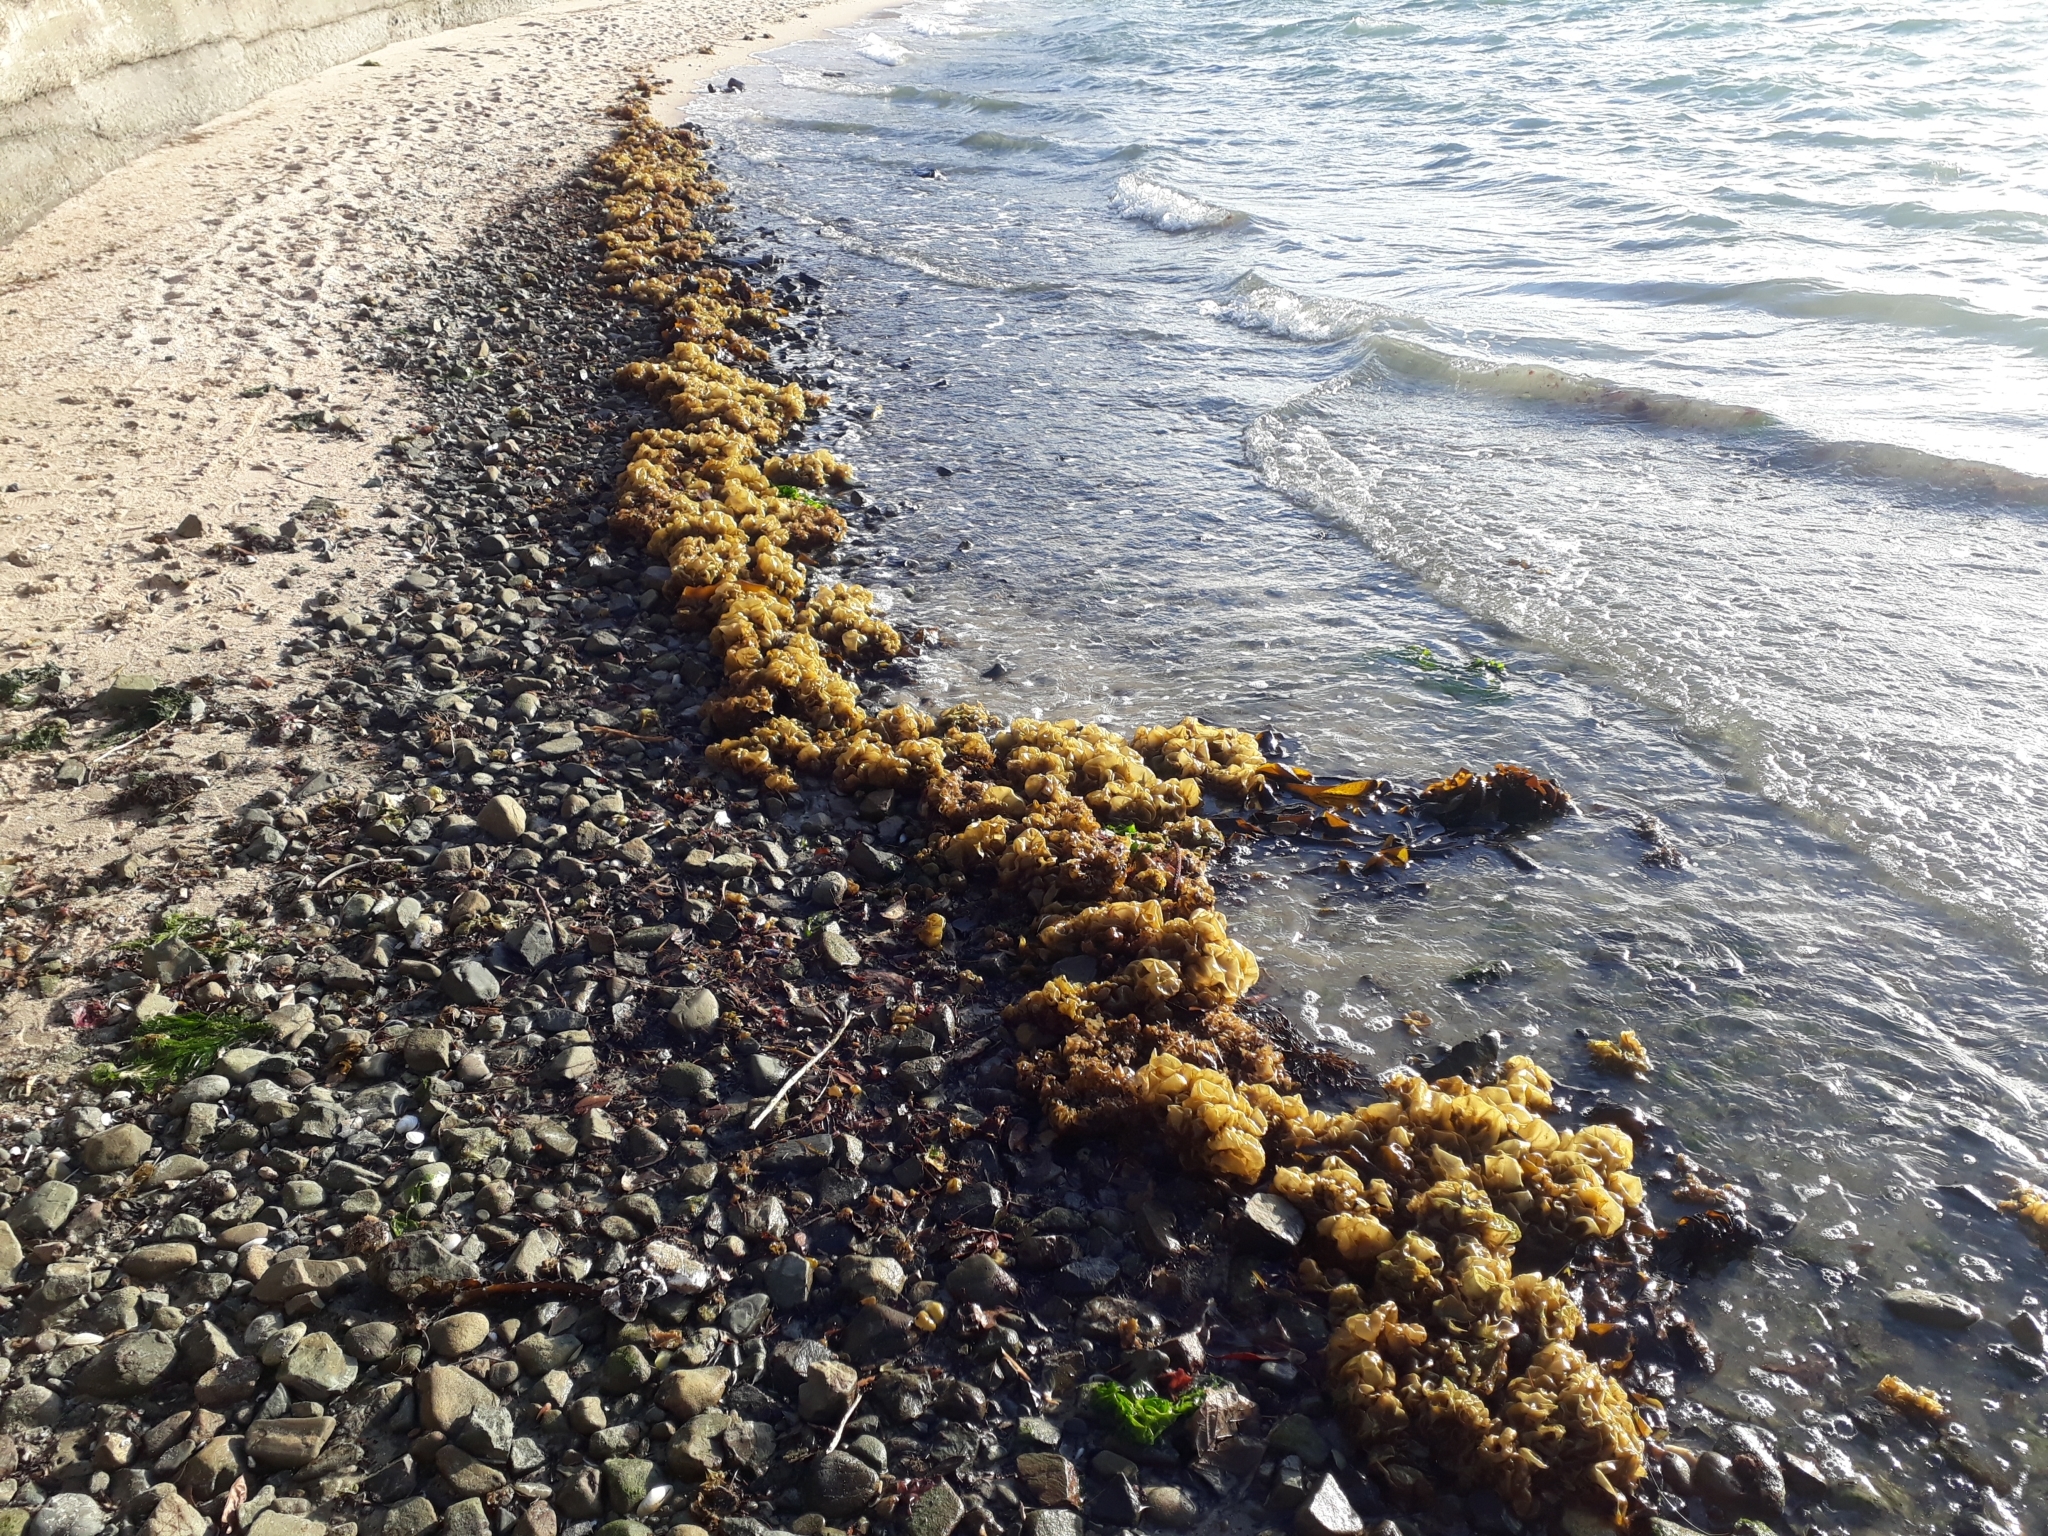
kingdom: Chromista
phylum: Ochrophyta
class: Phaeophyceae
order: Scytosiphonales
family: Scytosiphonaceae
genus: Colpomenia
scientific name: Colpomenia sinuosa
